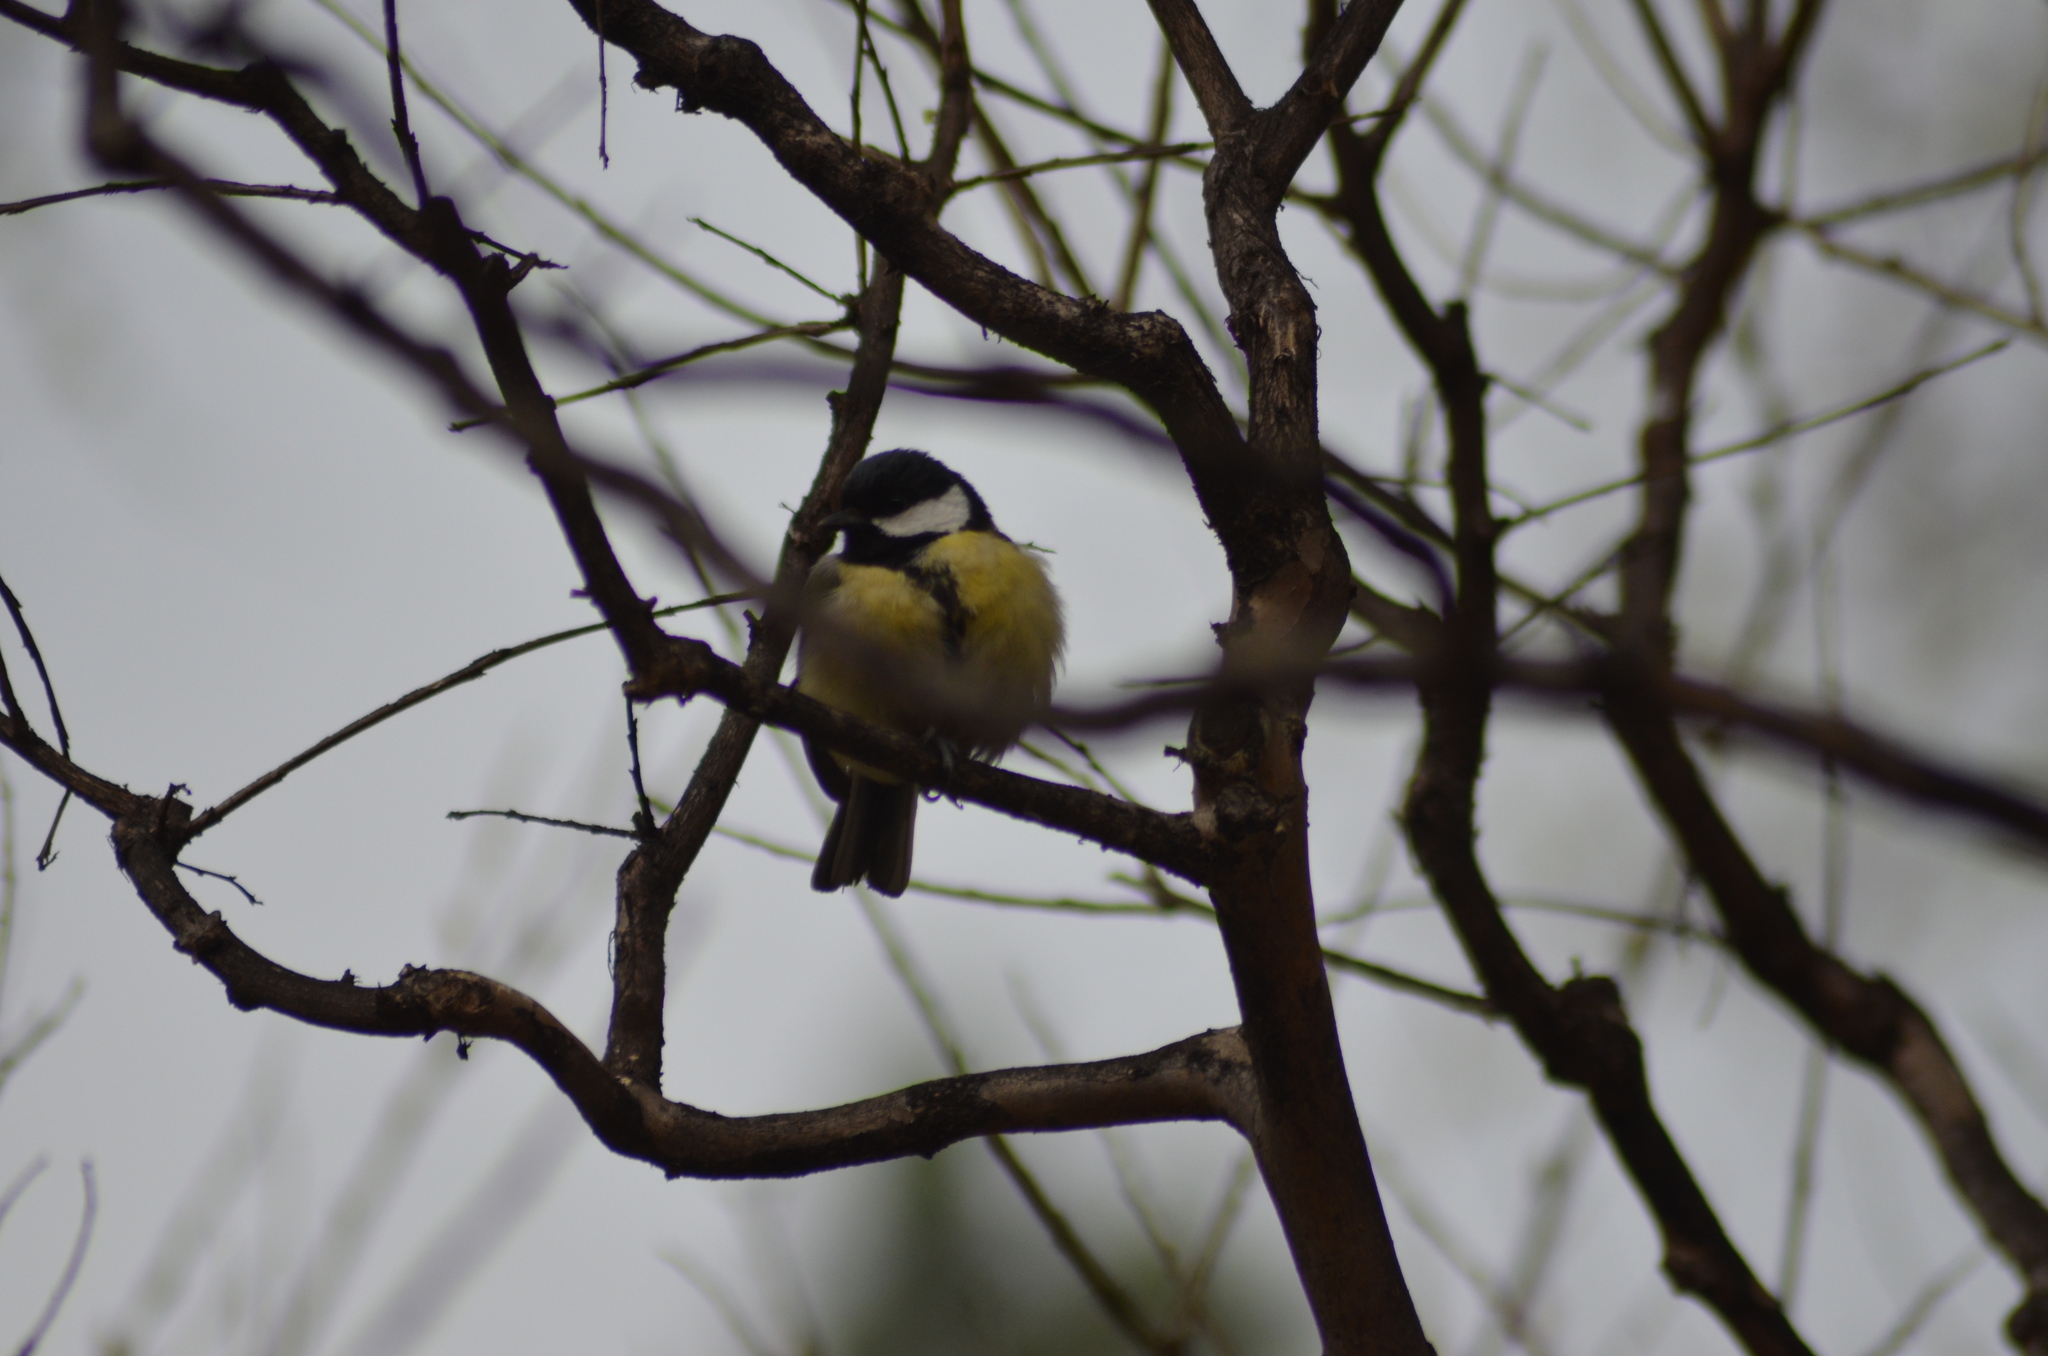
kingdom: Animalia
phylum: Chordata
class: Aves
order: Passeriformes
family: Paridae
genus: Parus
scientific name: Parus major
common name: Great tit
